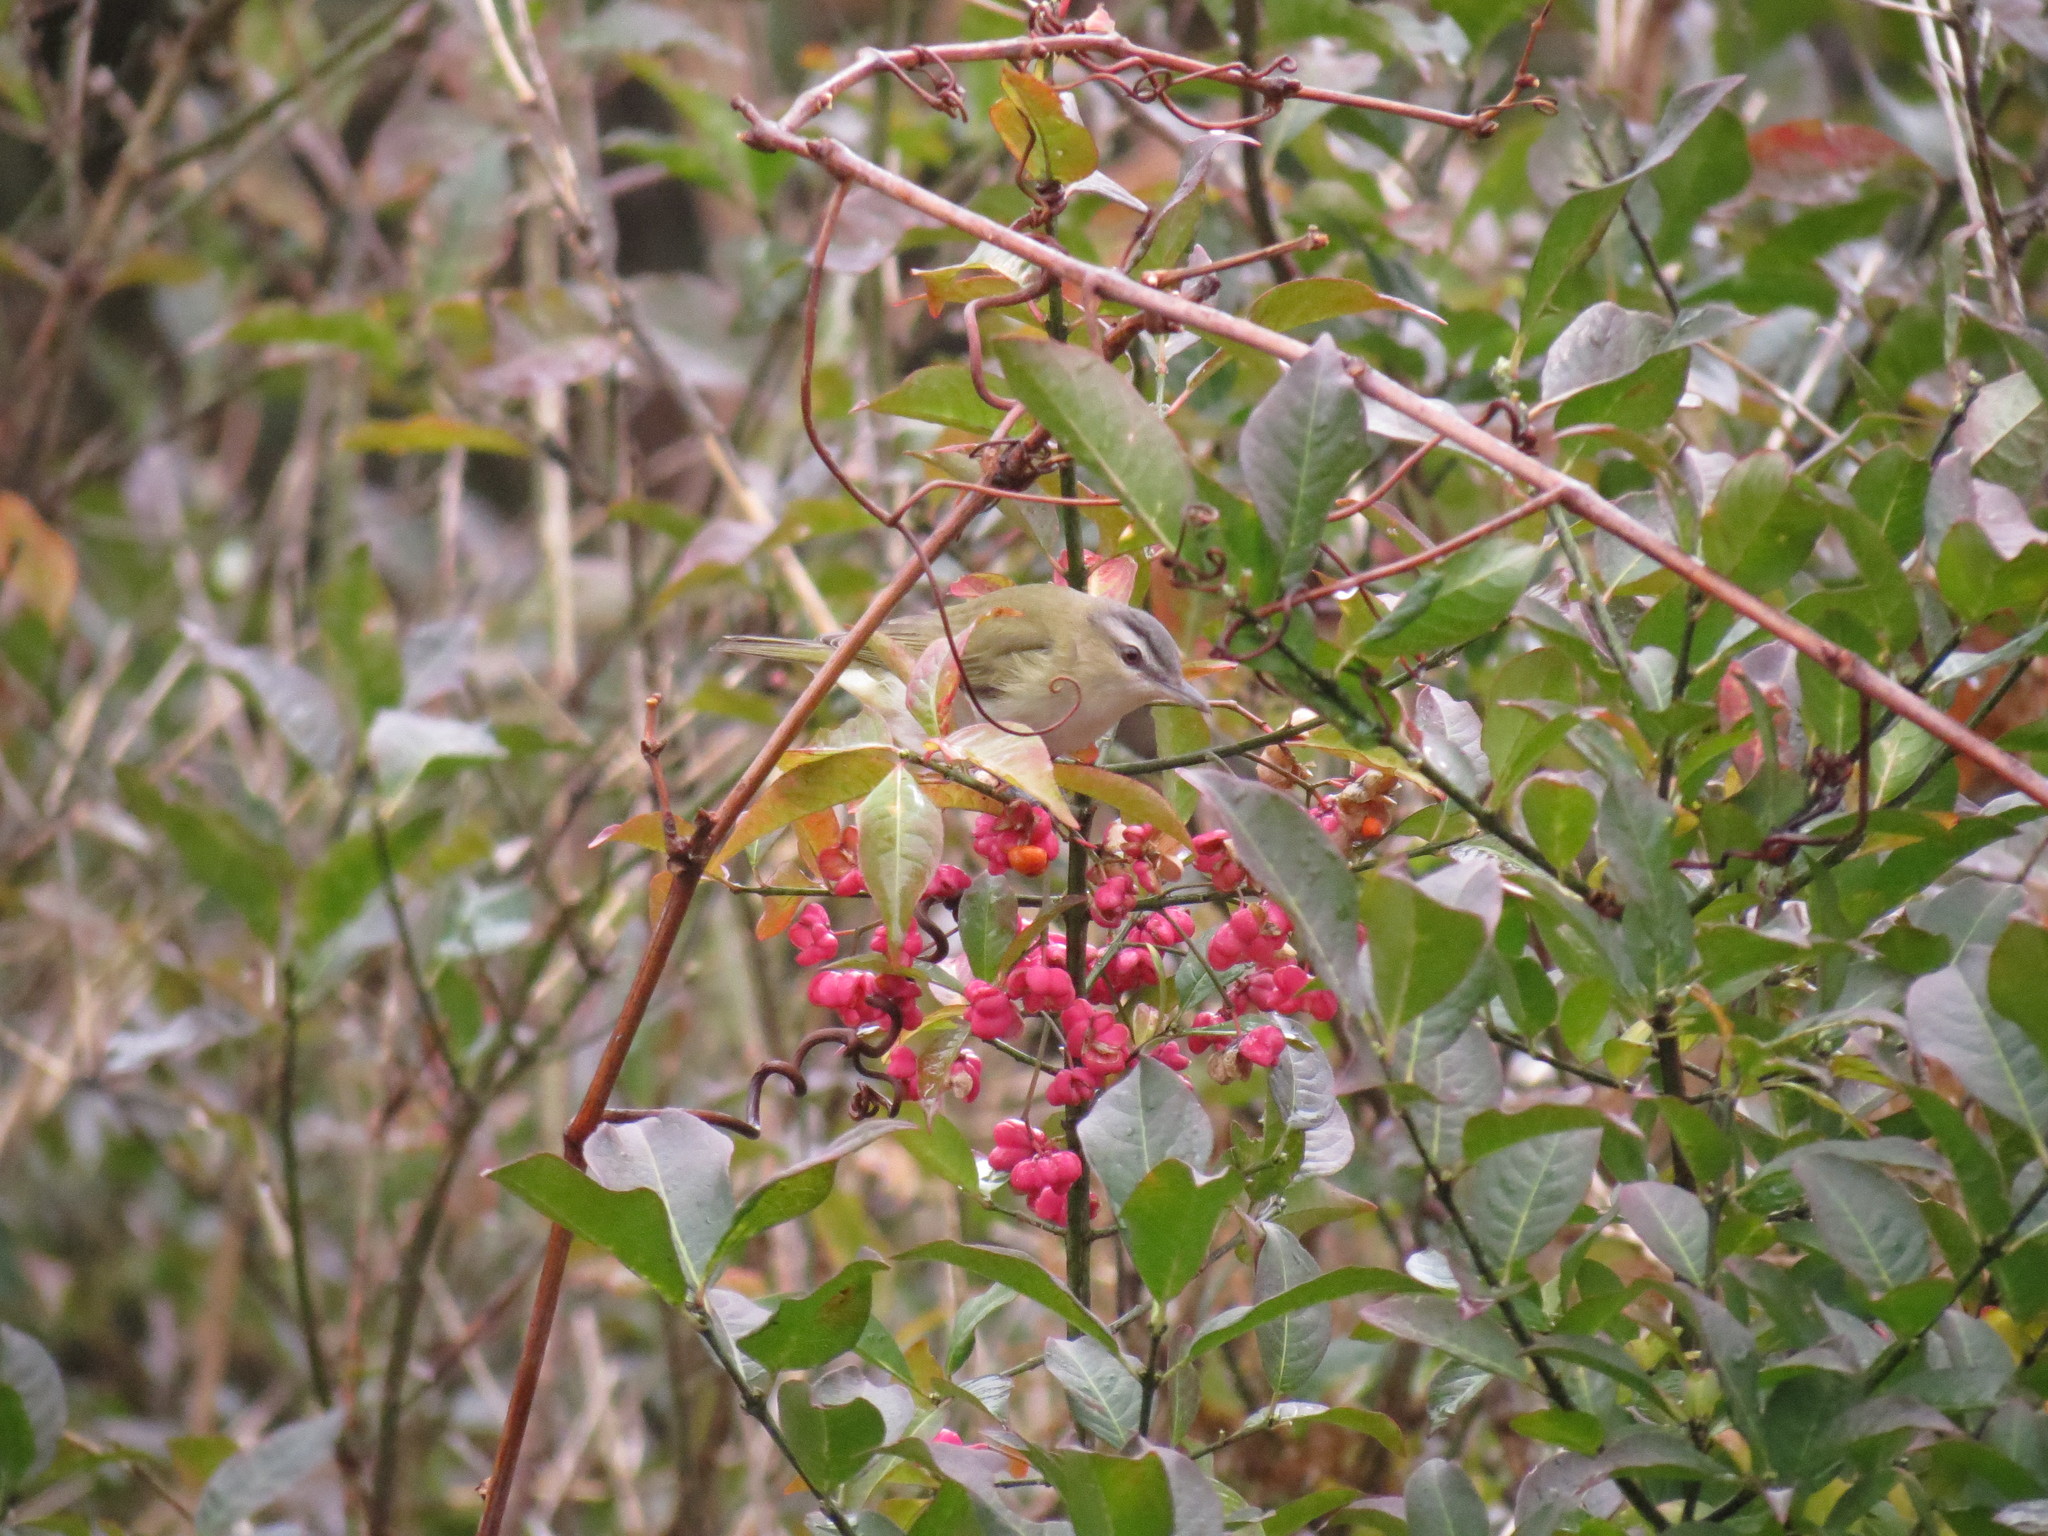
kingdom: Animalia
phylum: Chordata
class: Aves
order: Passeriformes
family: Vireonidae
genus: Vireo
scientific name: Vireo olivaceus
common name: Red-eyed vireo
